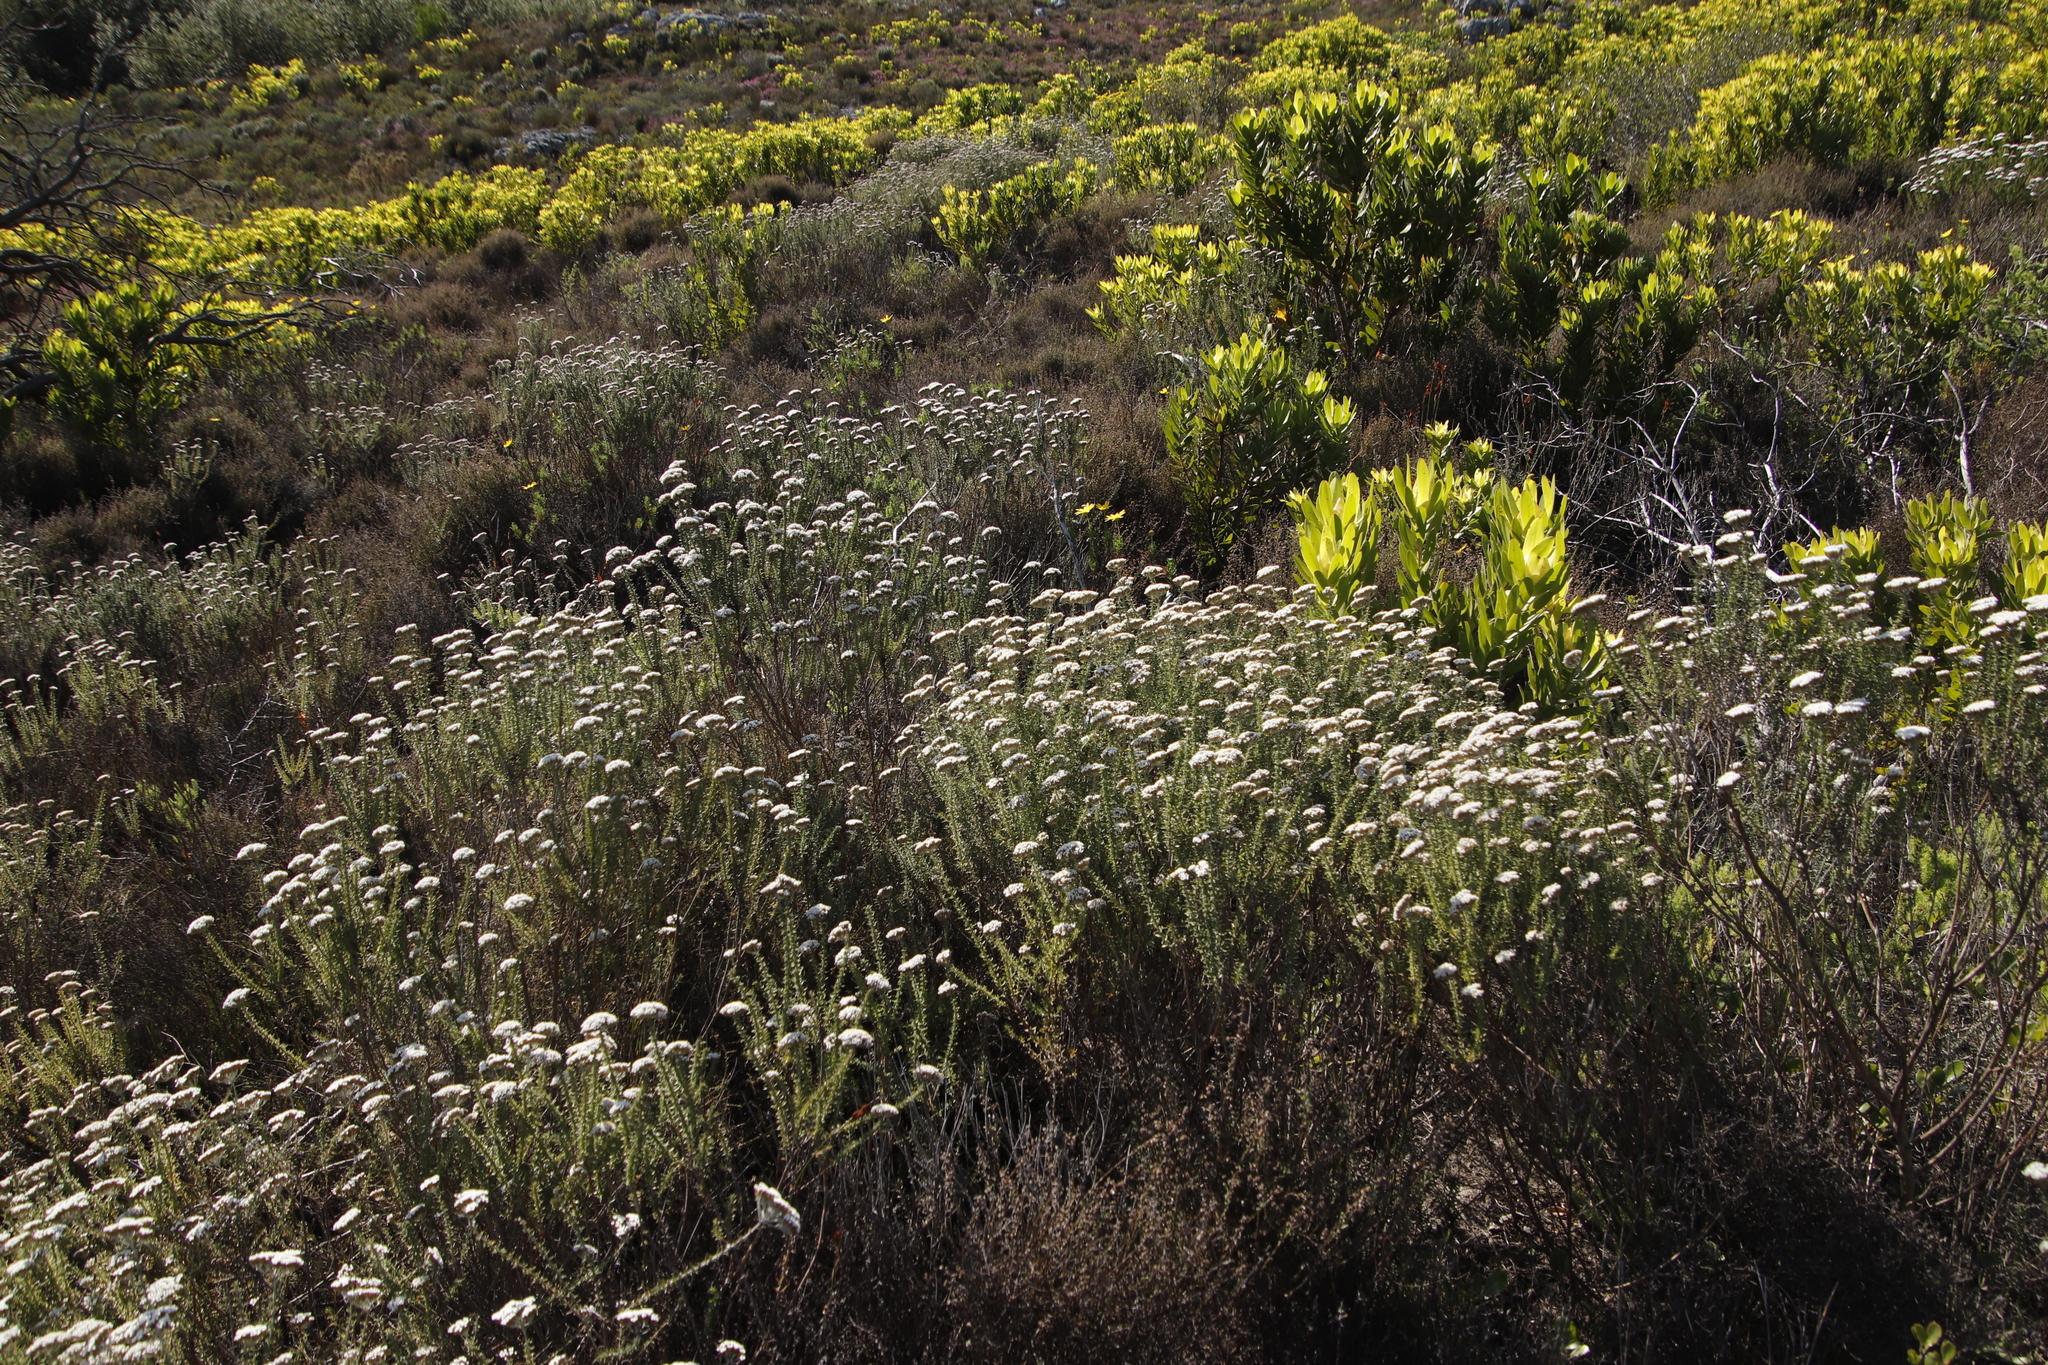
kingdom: Plantae
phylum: Tracheophyta
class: Magnoliopsida
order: Asterales
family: Asteraceae
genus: Metalasia
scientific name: Metalasia densa
